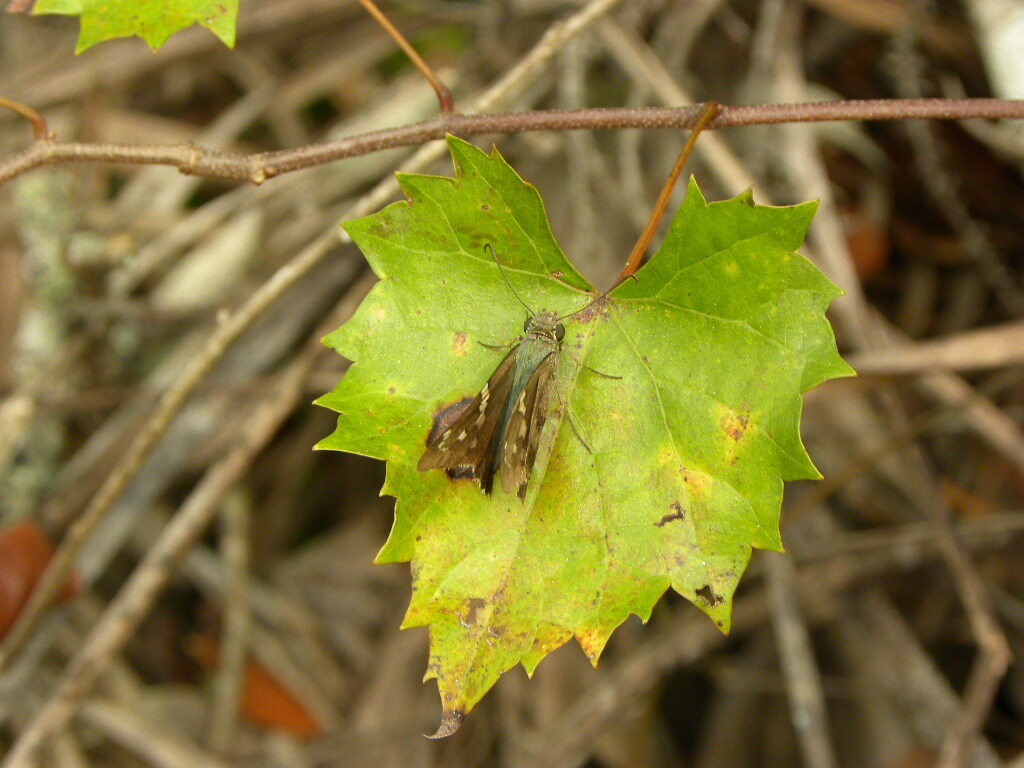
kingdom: Animalia
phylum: Arthropoda
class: Insecta
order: Lepidoptera
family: Hesperiidae
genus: Urbanus
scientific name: Urbanus proteus
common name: Long-tailed skipper
